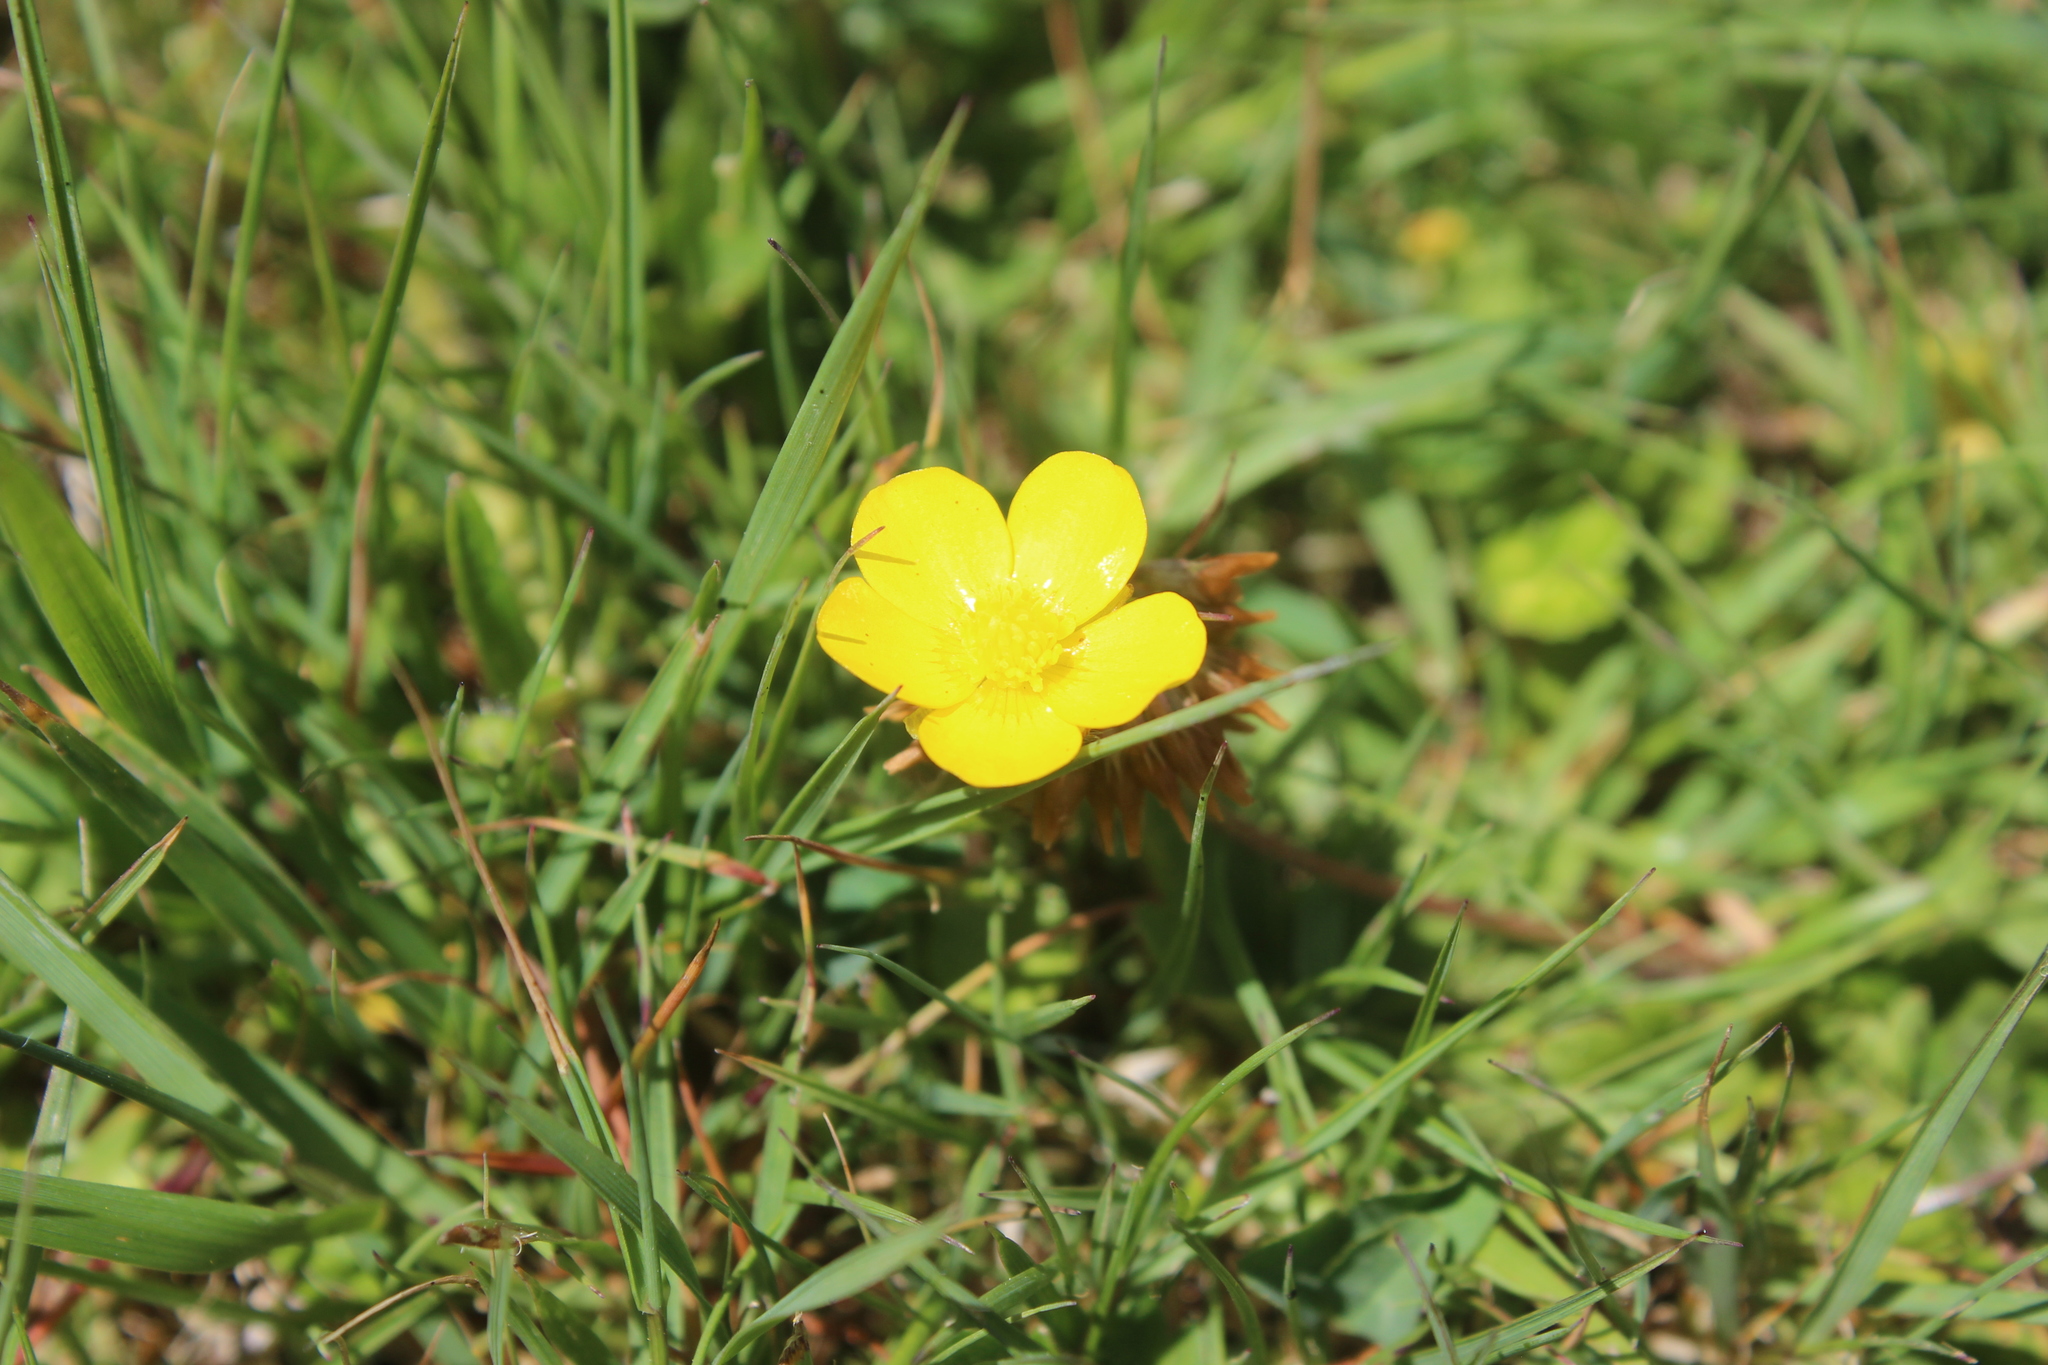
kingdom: Plantae
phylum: Tracheophyta
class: Magnoliopsida
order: Ranunculales
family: Ranunculaceae
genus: Ranunculus
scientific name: Ranunculus repens
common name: Creeping buttercup
